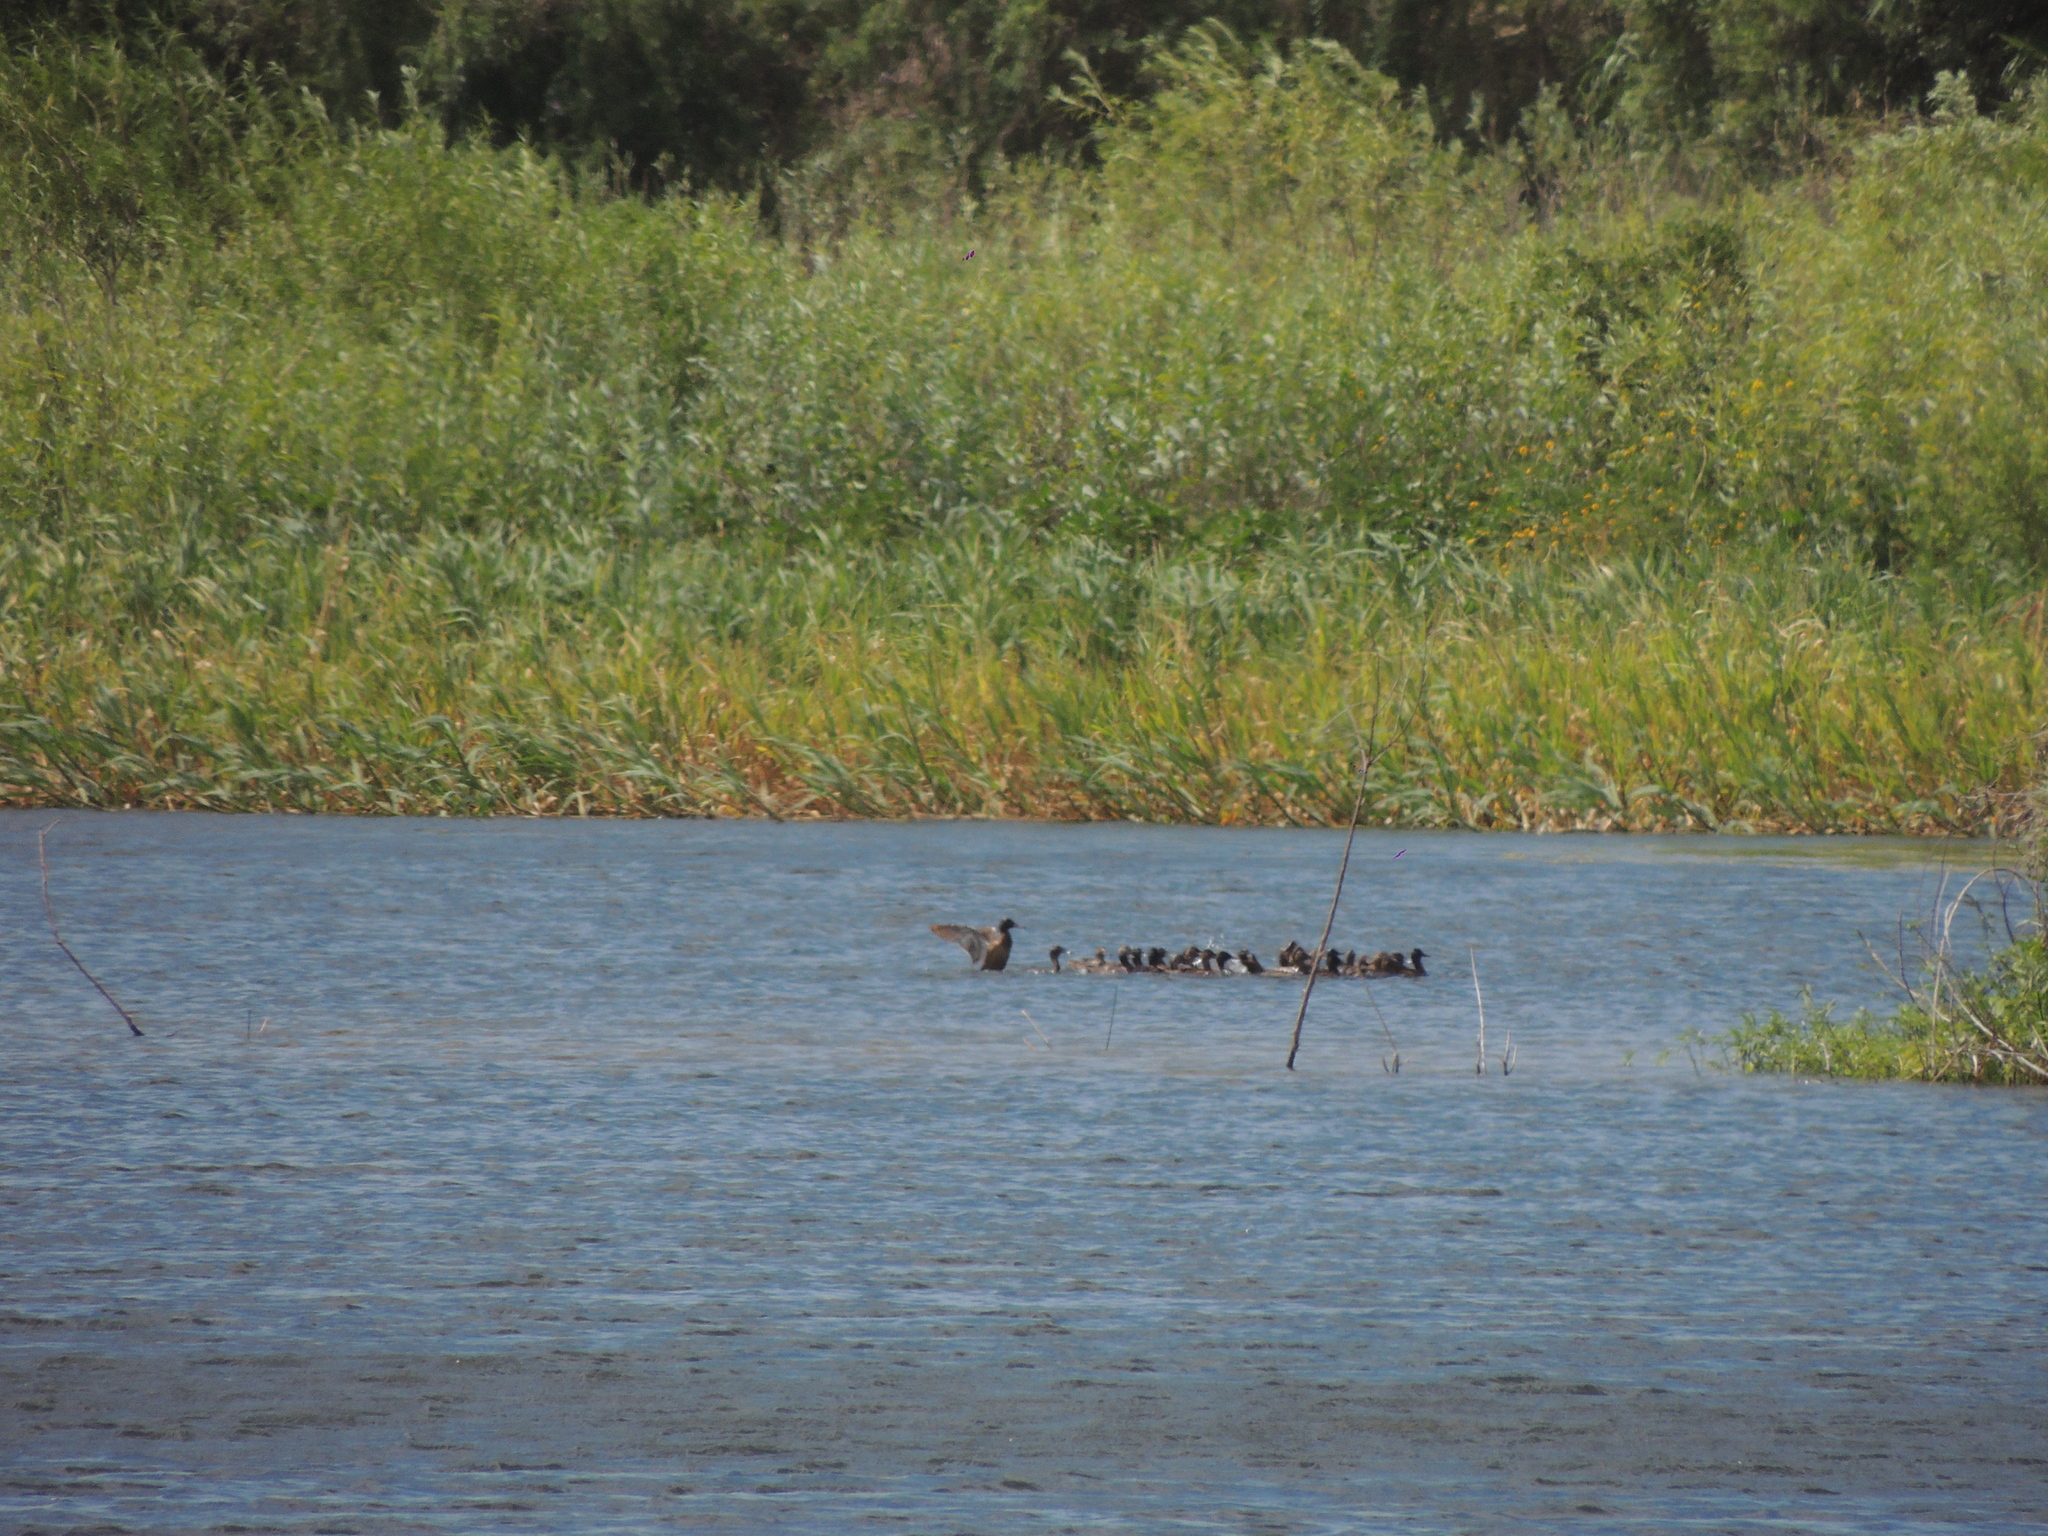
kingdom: Animalia
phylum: Chordata
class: Aves
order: Anseriformes
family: Anatidae
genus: Heteronetta
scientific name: Heteronetta atricapilla
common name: Black-headed duck
